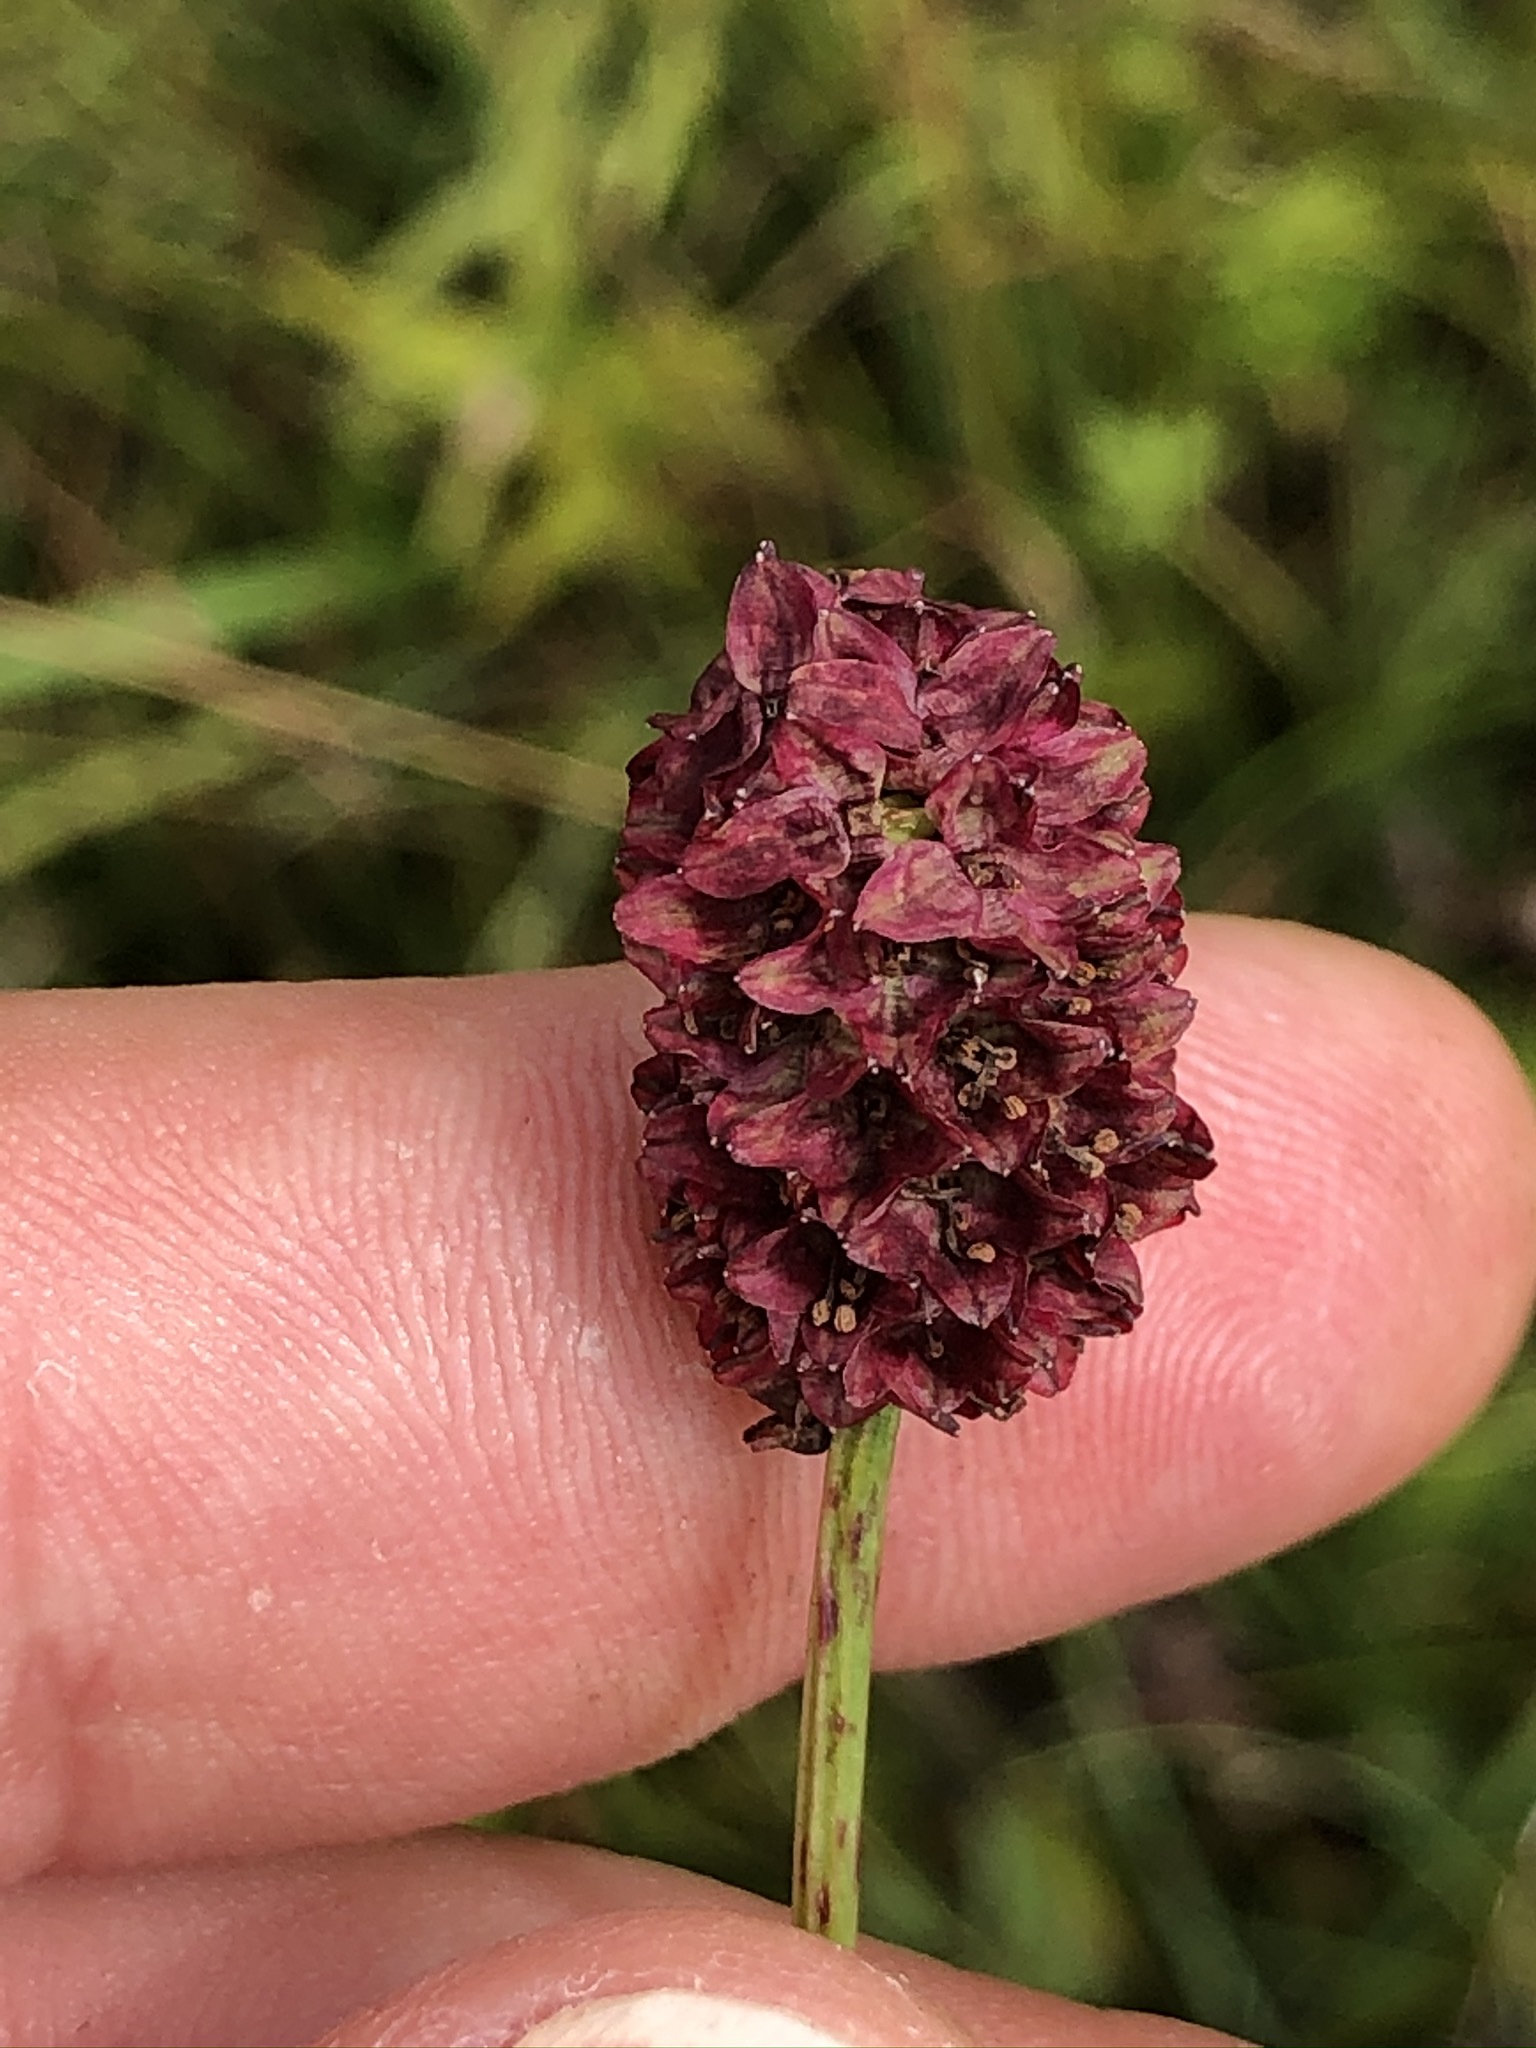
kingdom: Plantae
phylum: Tracheophyta
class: Magnoliopsida
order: Rosales
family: Rosaceae
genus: Sanguisorba
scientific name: Sanguisorba officinalis
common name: Great burnet
